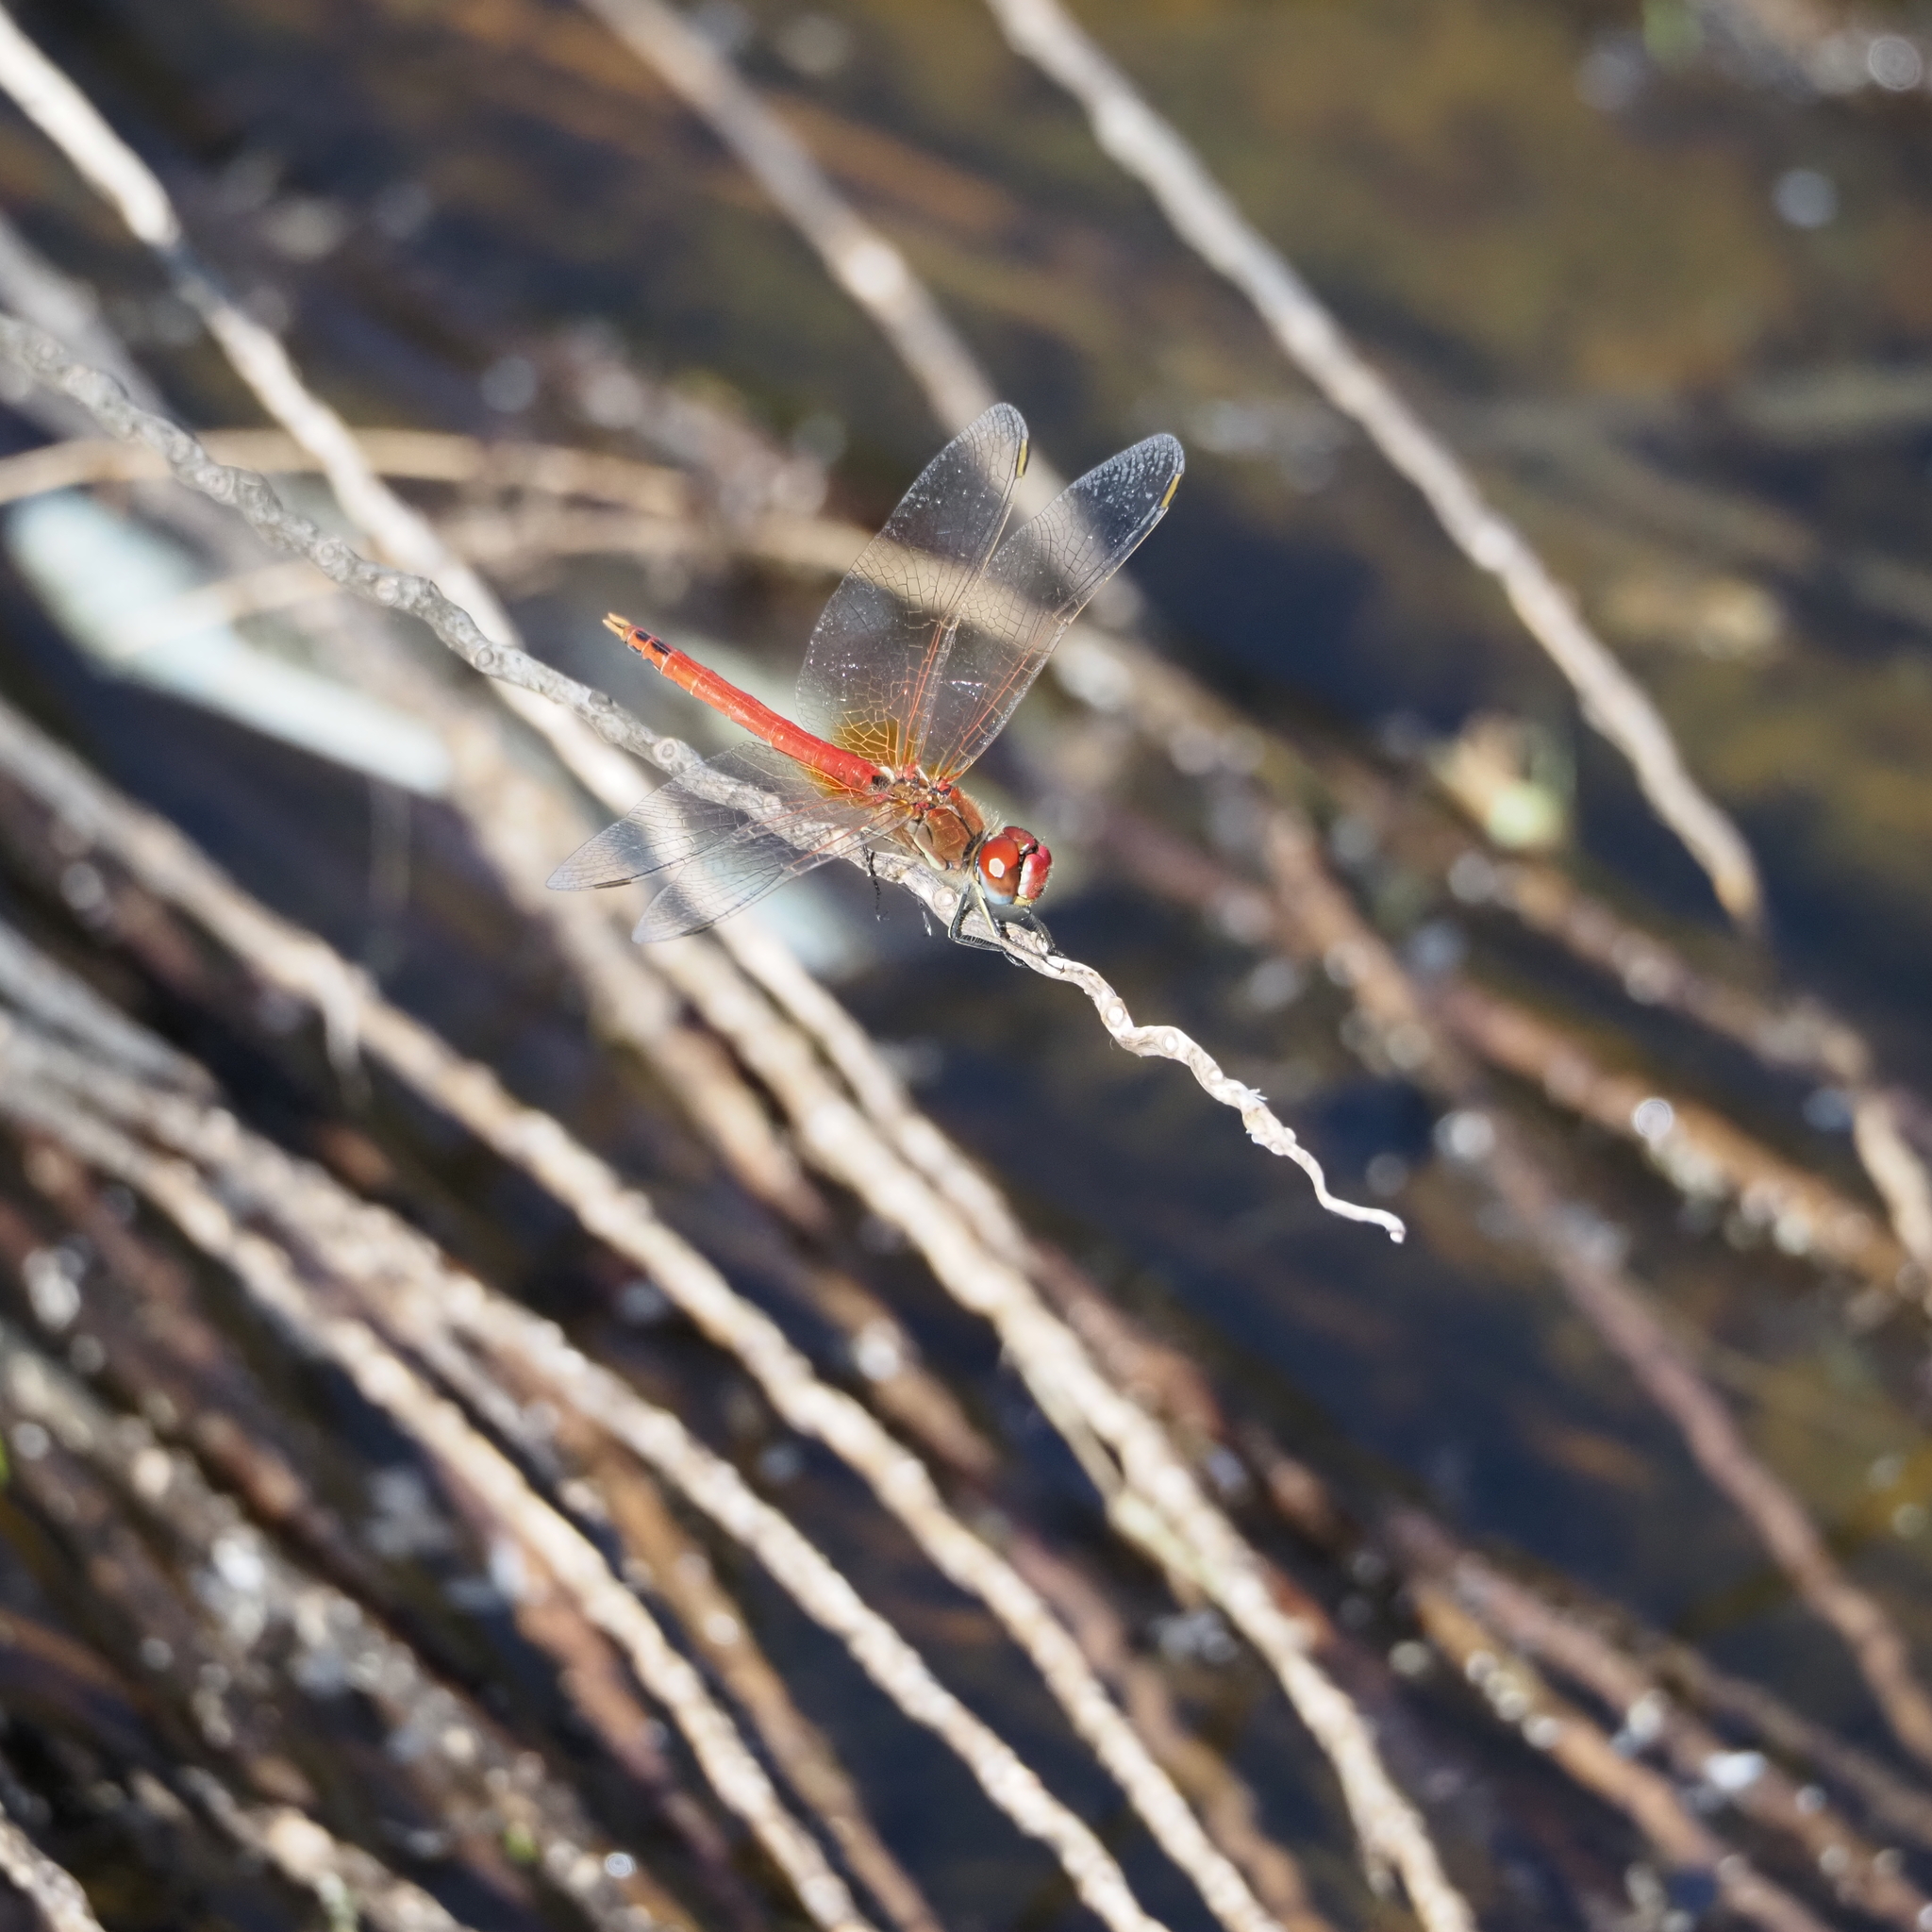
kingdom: Animalia
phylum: Arthropoda
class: Insecta
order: Odonata
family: Libellulidae
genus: Sympetrum
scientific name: Sympetrum fonscolombii
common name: Red-veined darter
